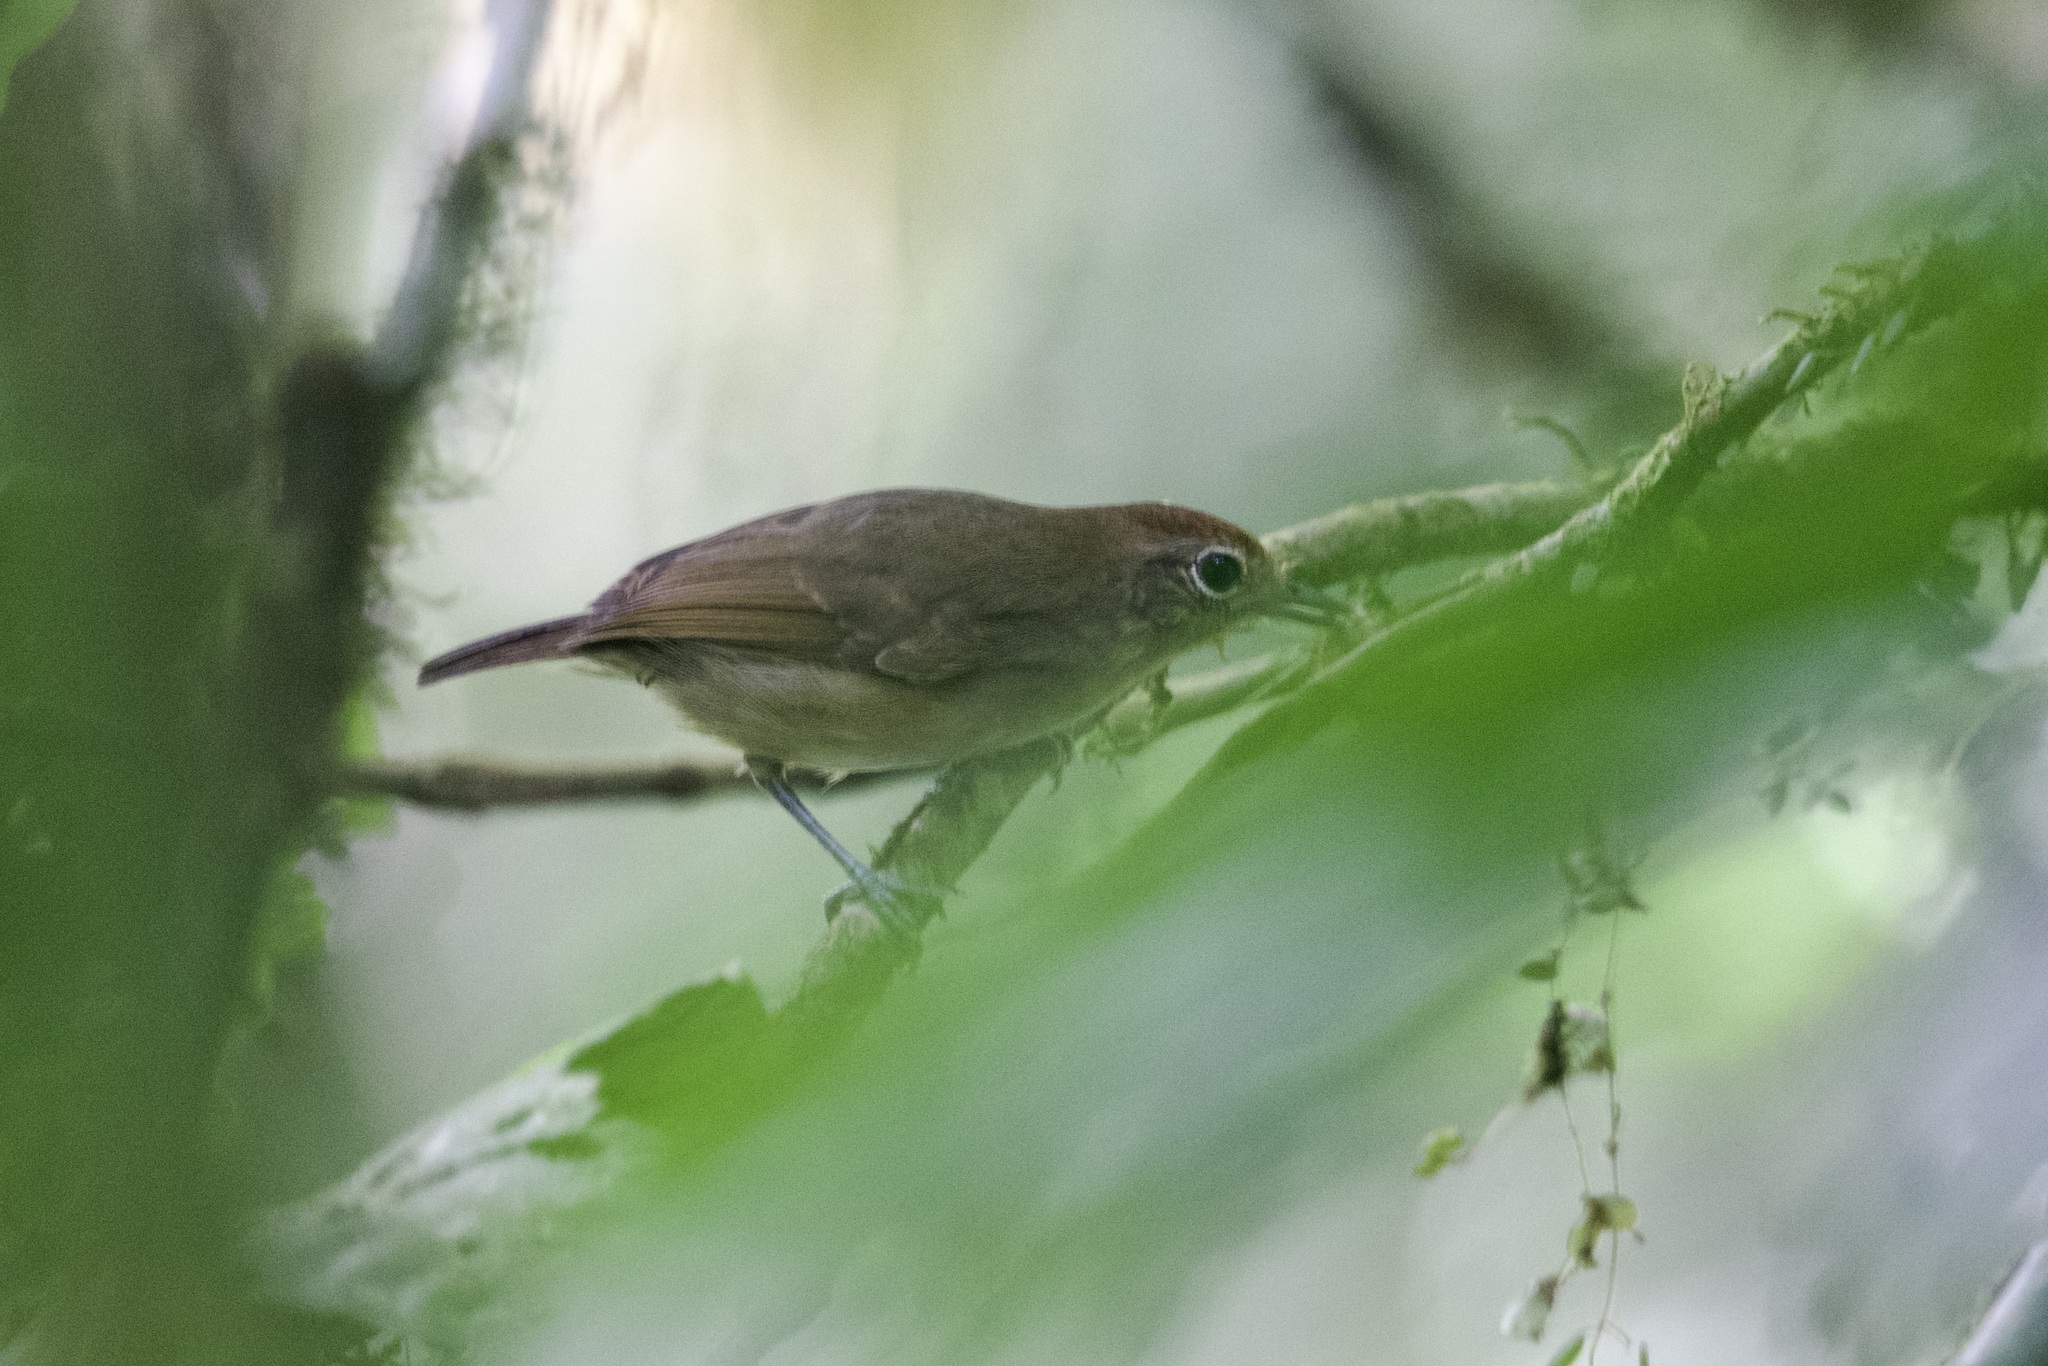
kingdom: Animalia
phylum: Chordata
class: Aves
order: Passeriformes
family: Thamnophilidae
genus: Dysithamnus
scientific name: Dysithamnus mentalis
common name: Plain antvireo
